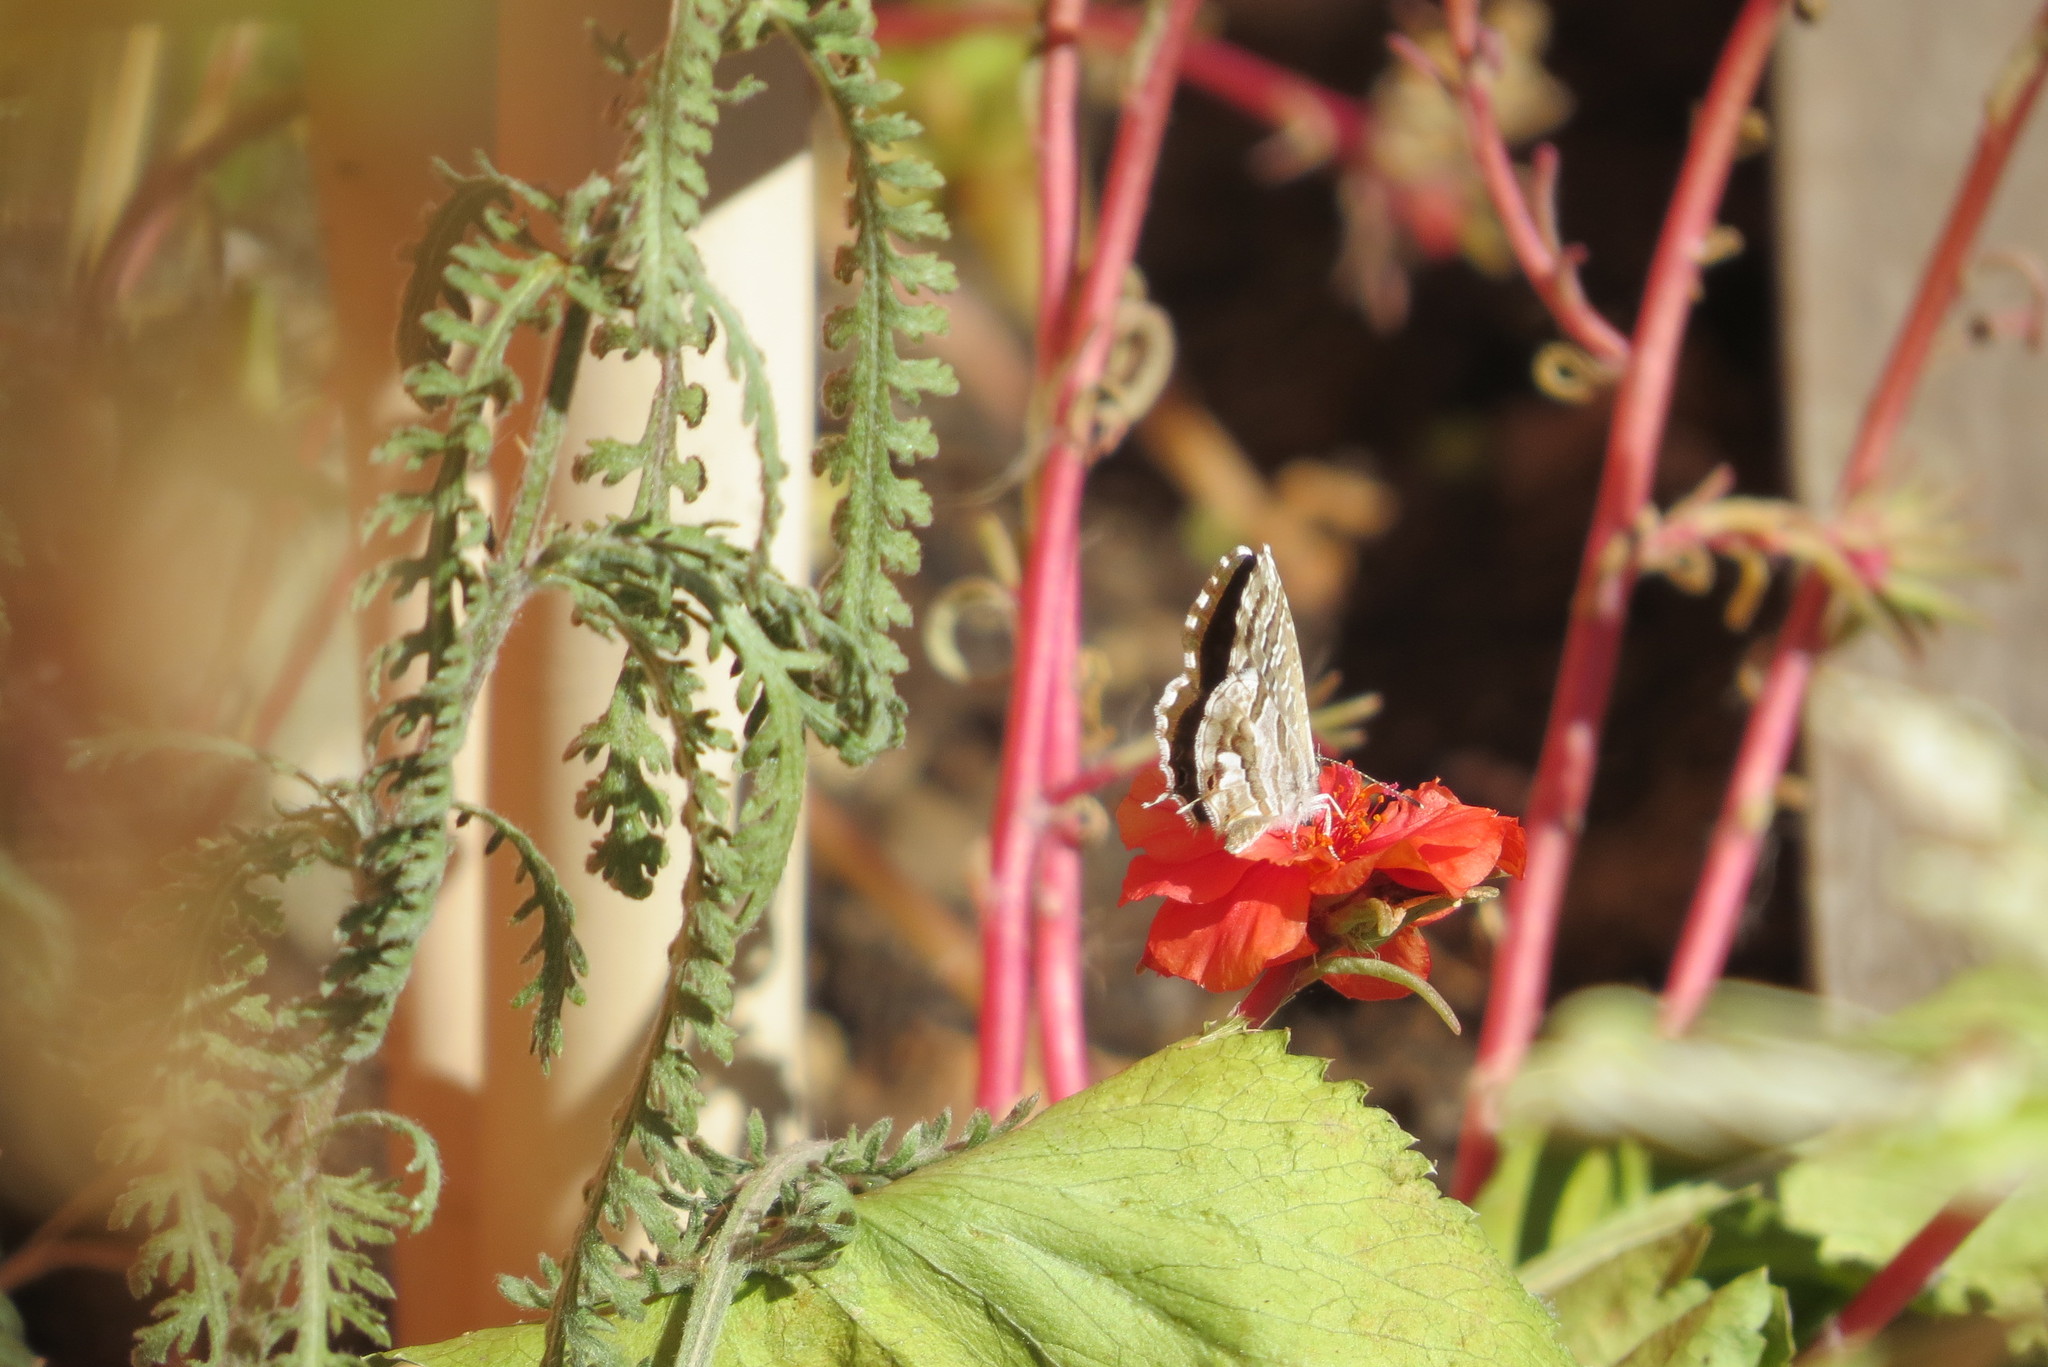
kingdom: Animalia
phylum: Arthropoda
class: Insecta
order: Lepidoptera
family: Lycaenidae
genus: Cacyreus
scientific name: Cacyreus marshalli
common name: Geranium bronze
